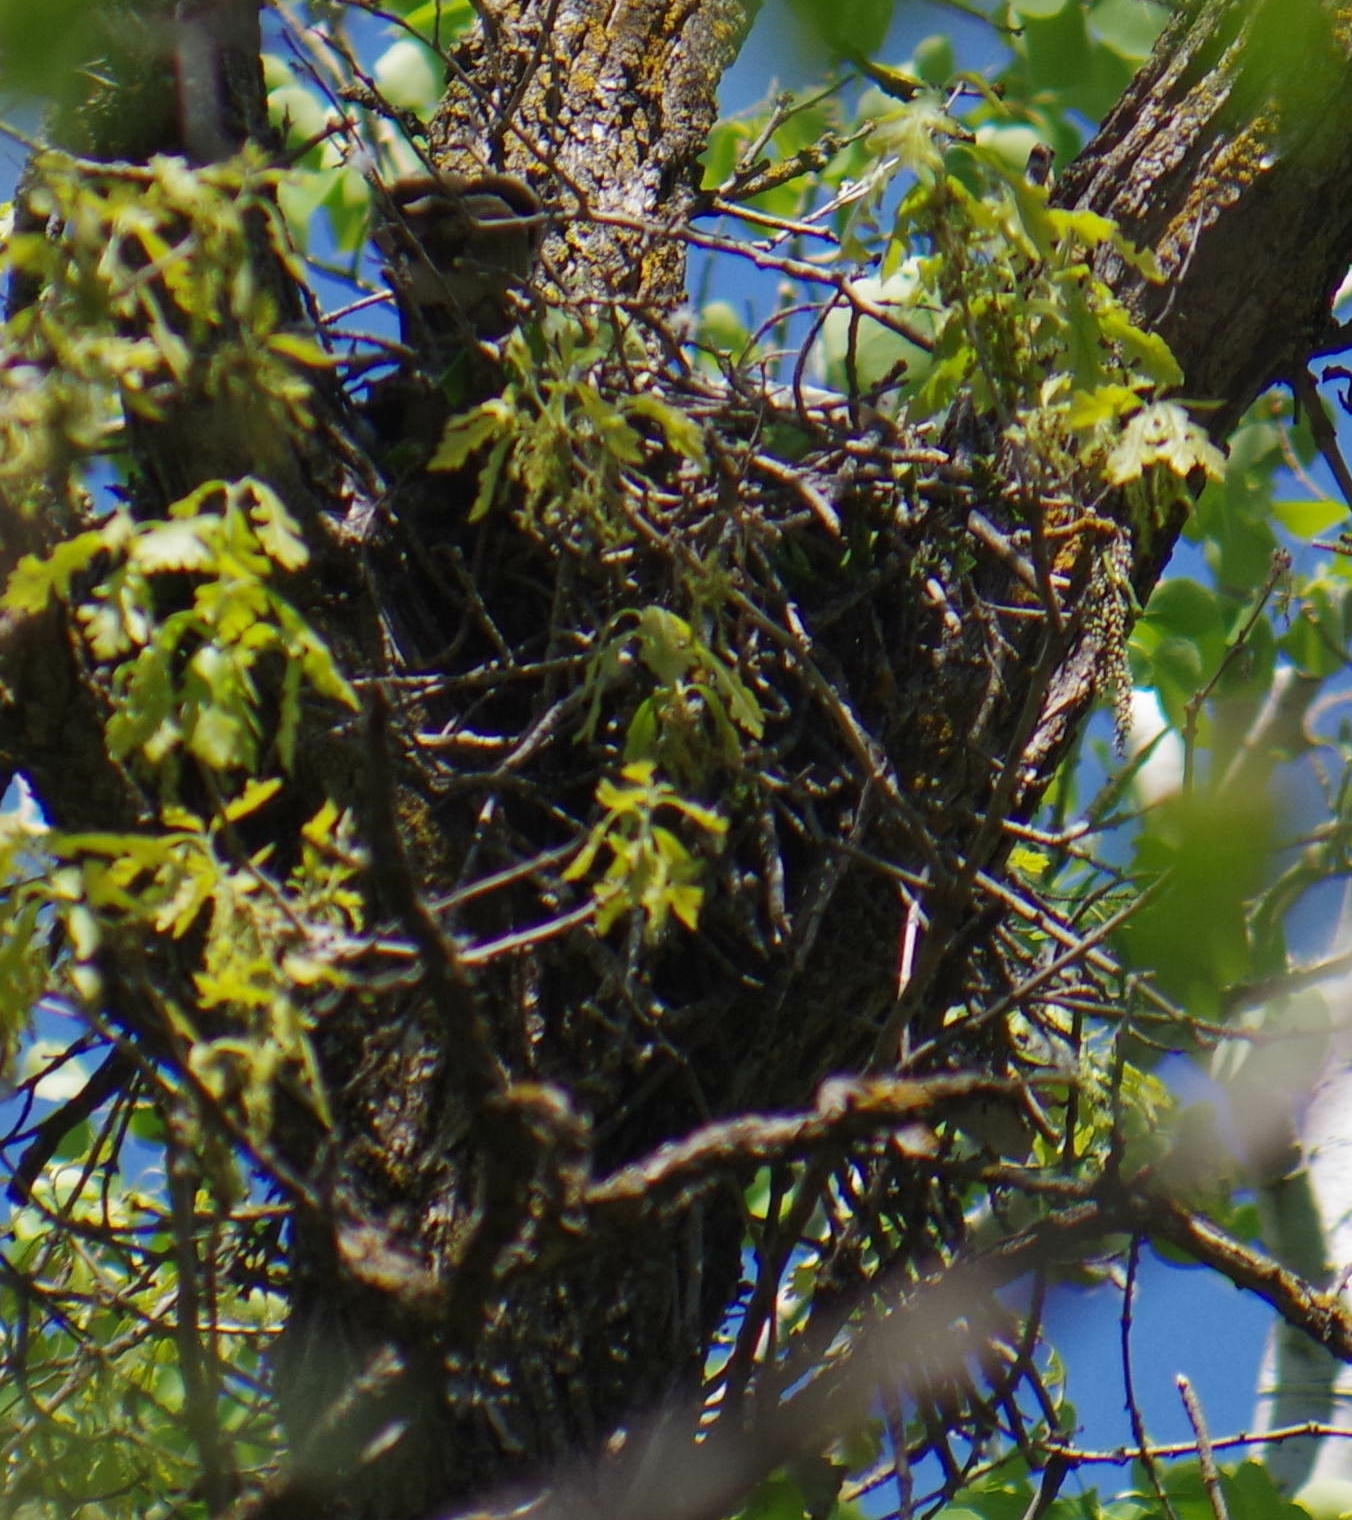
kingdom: Animalia
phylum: Chordata
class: Aves
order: Accipitriformes
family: Accipitridae
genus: Buteo
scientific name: Buteo platypterus
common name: Broad-winged hawk
